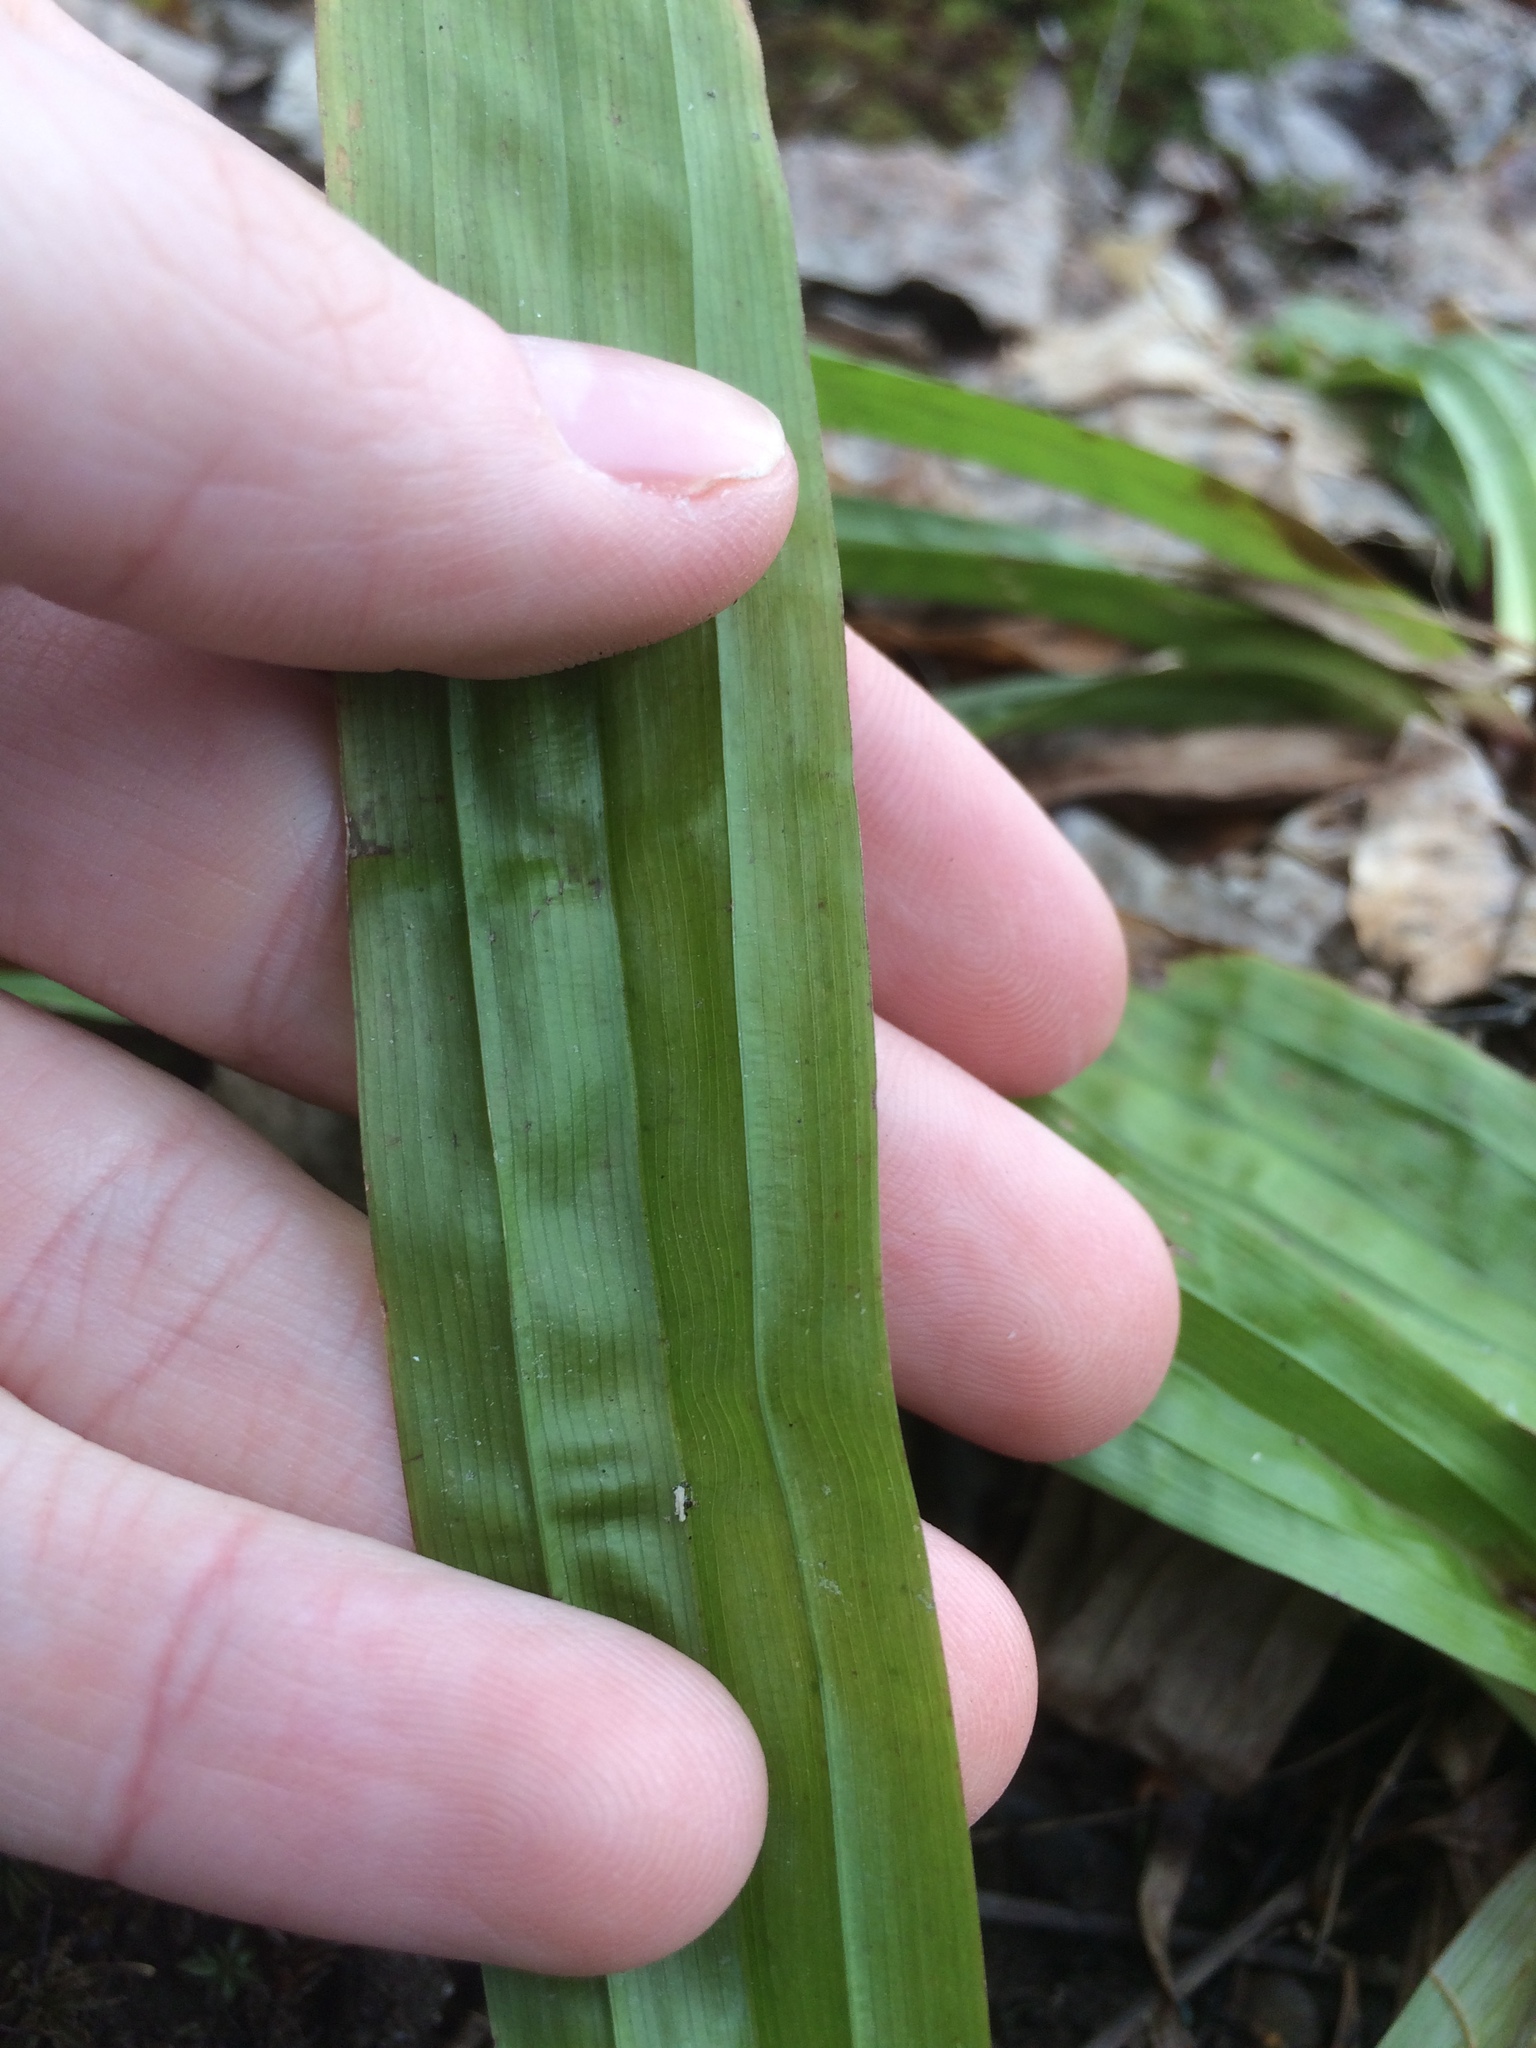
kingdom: Plantae
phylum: Tracheophyta
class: Liliopsida
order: Poales
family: Cyperaceae
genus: Carex
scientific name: Carex plantaginea
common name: Plantain-leaved sedge
